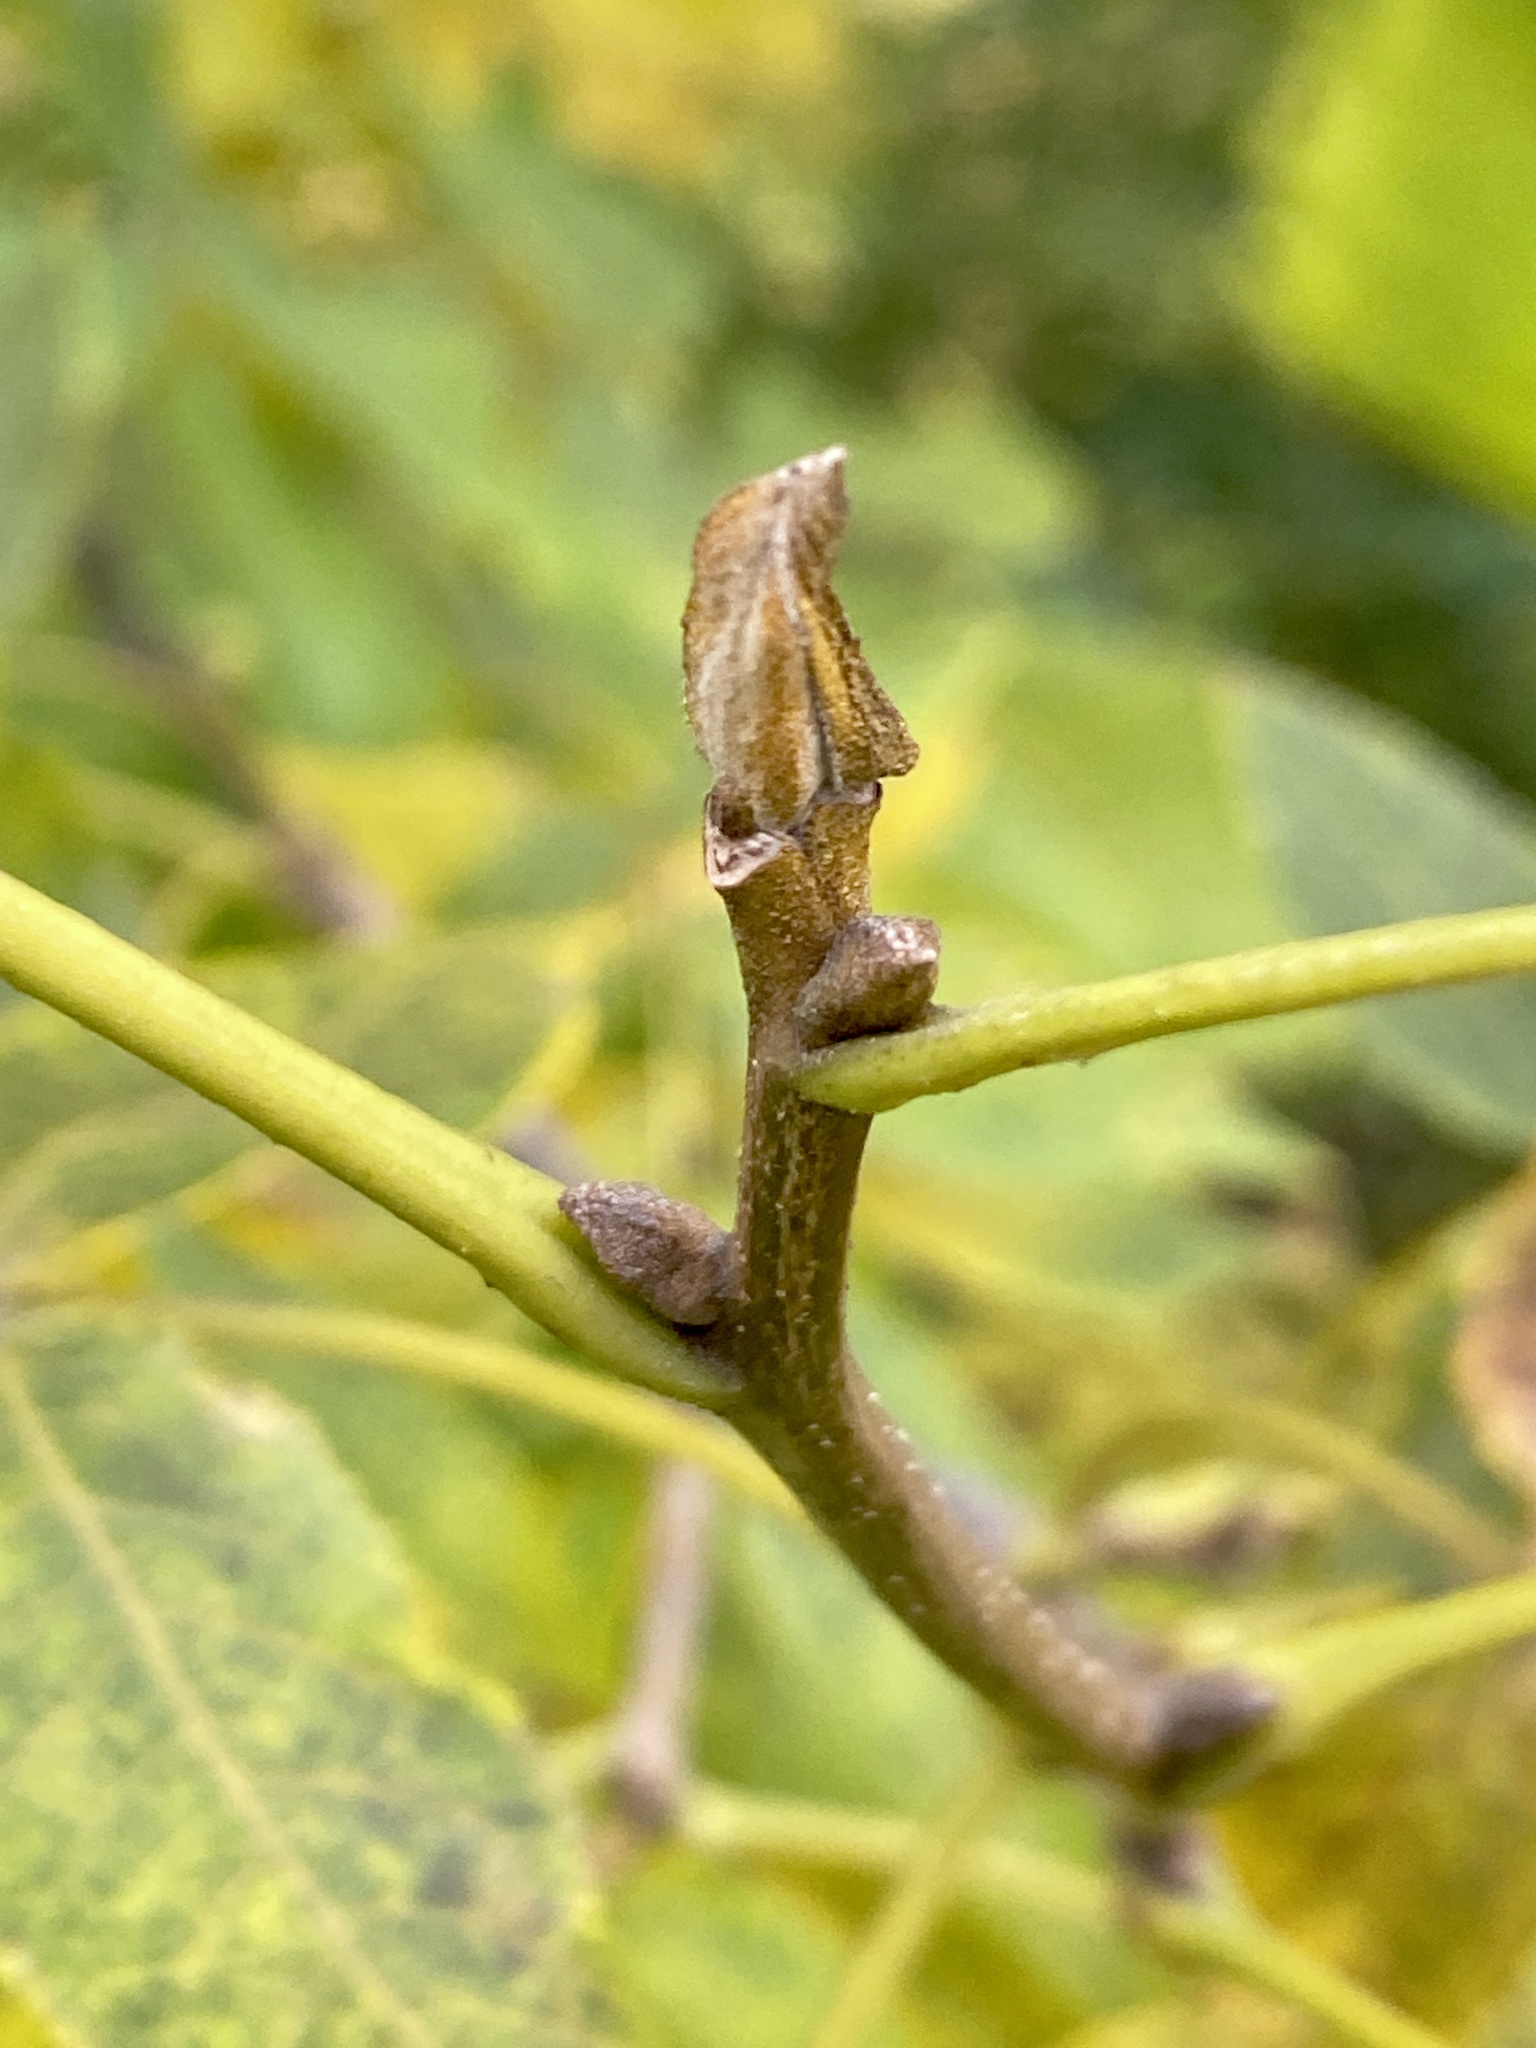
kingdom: Plantae
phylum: Tracheophyta
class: Magnoliopsida
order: Fagales
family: Juglandaceae
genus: Carya
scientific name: Carya cordiformis
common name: Bitternut hickory
